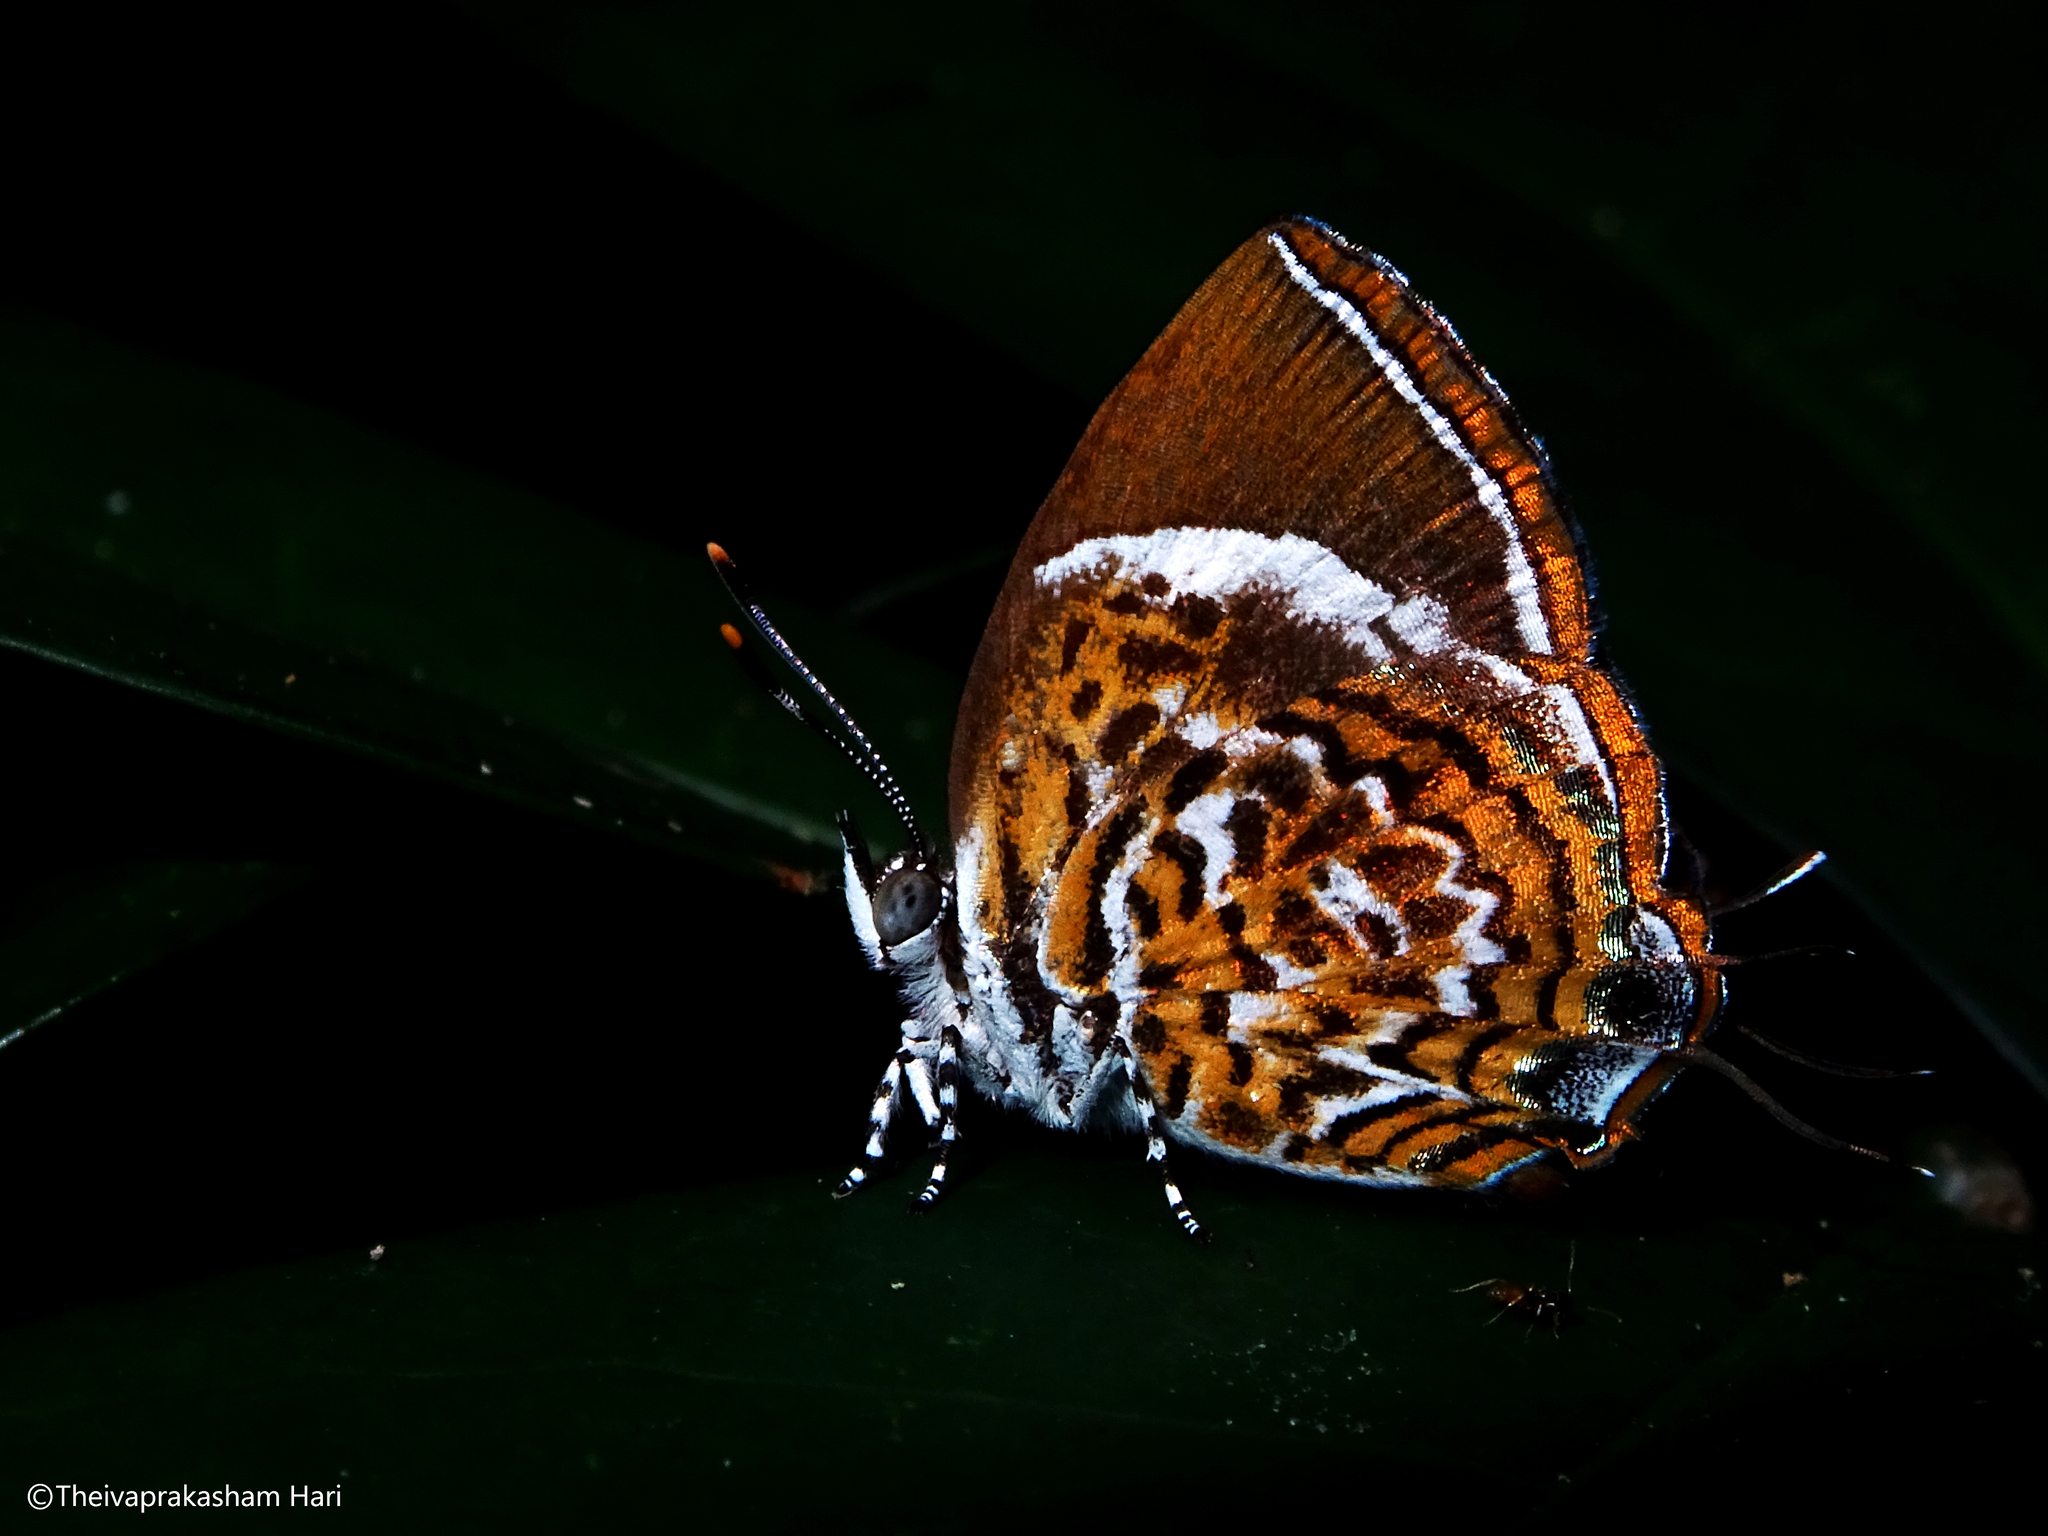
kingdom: Animalia
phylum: Arthropoda
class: Insecta
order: Lepidoptera
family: Lycaenidae
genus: Rathinda
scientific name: Rathinda amor
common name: Monkey puzzle
